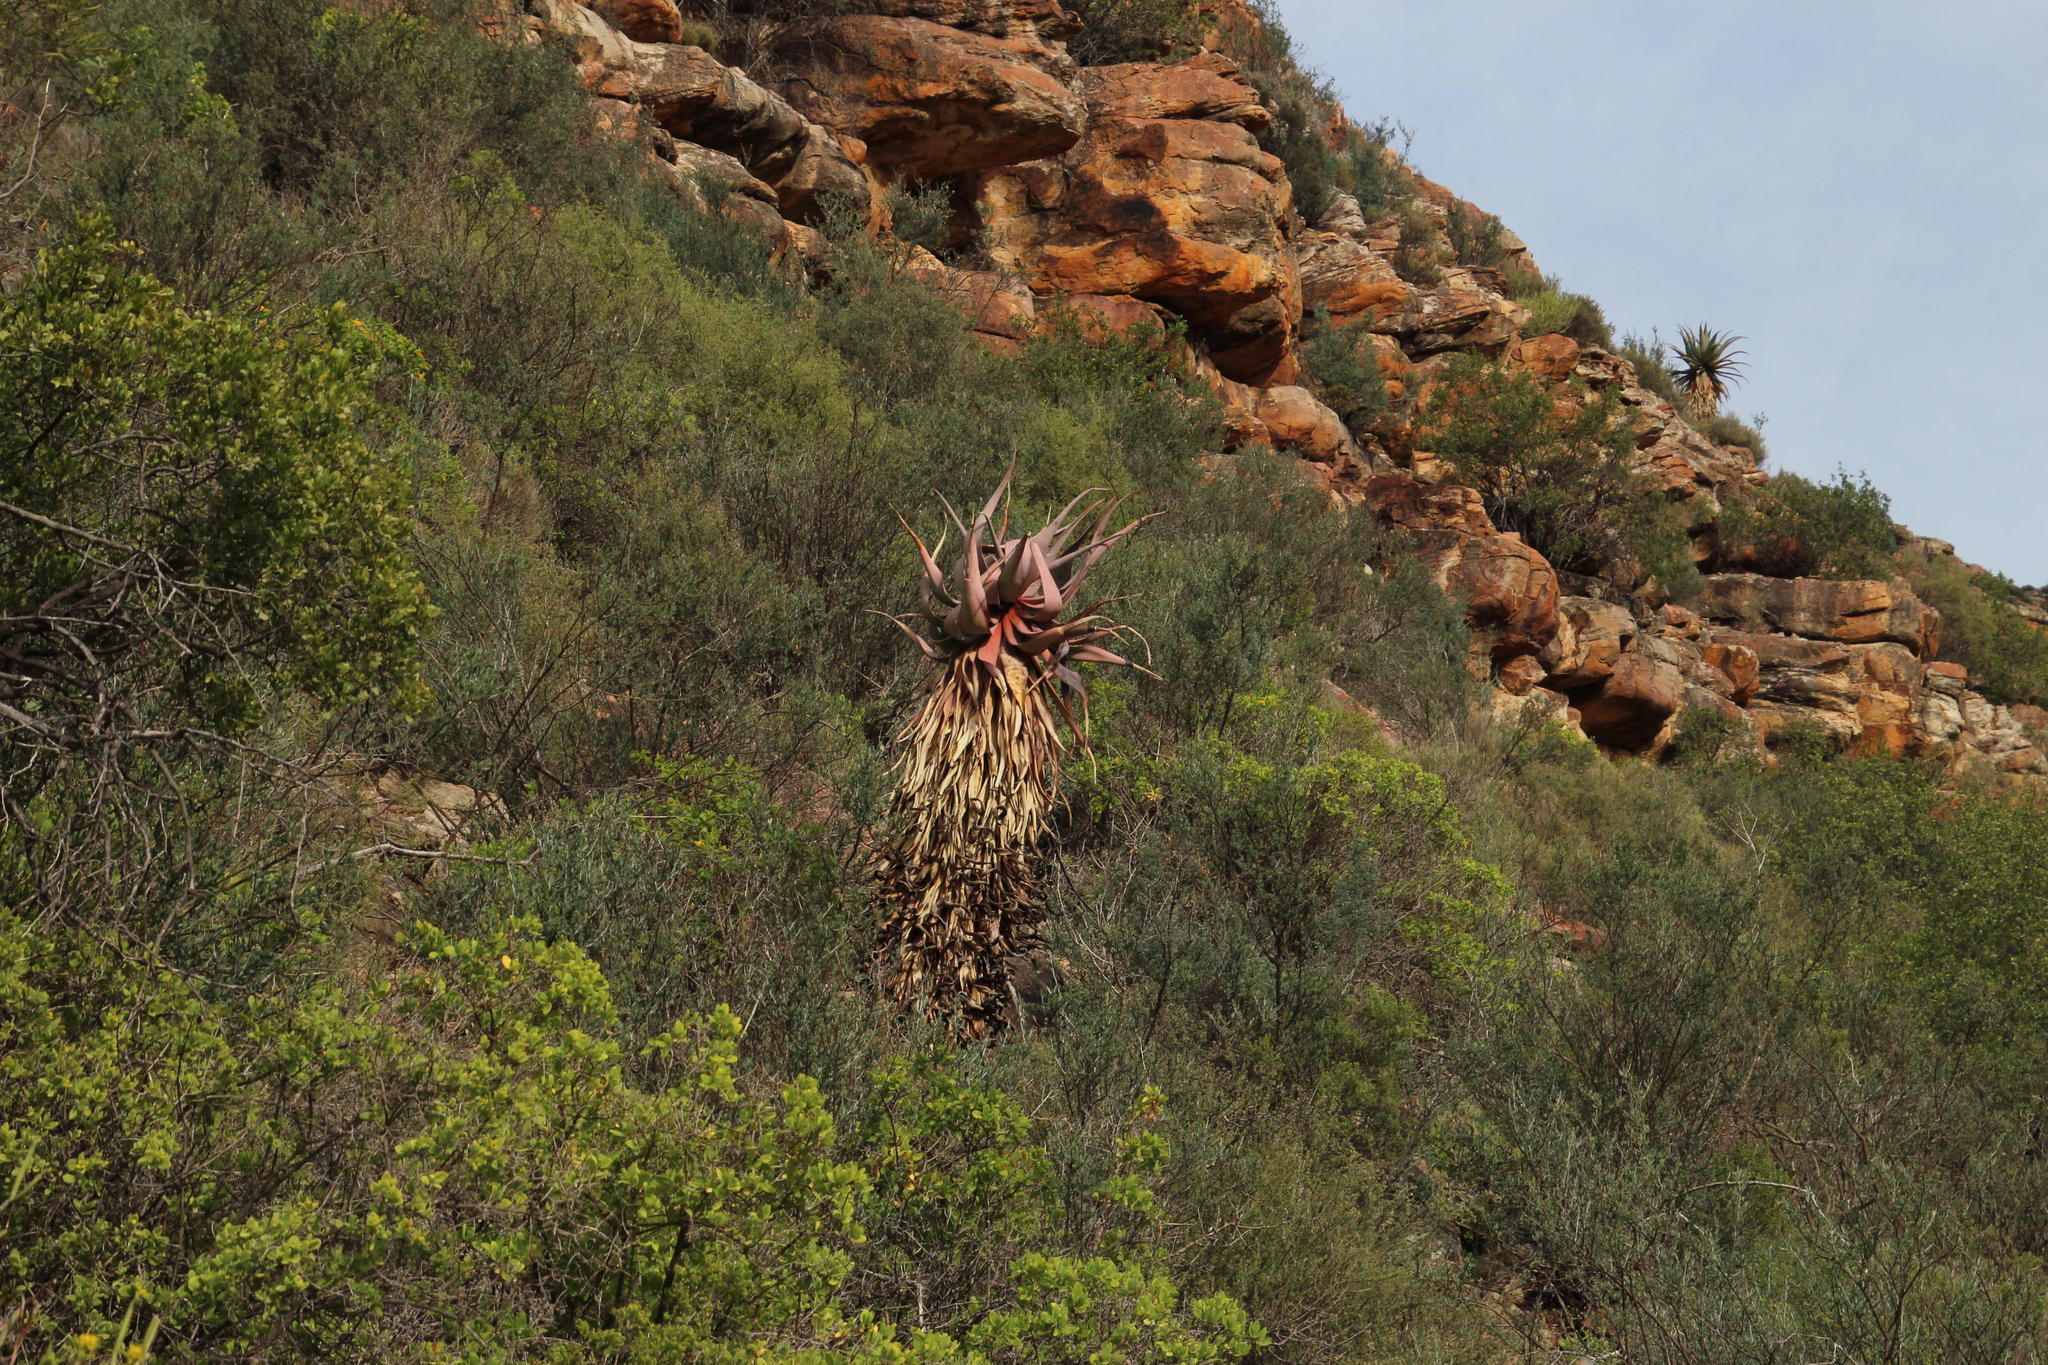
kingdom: Plantae
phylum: Tracheophyta
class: Liliopsida
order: Asparagales
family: Asphodelaceae
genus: Aloe
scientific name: Aloe comosa
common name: Clanwilliam aloe
